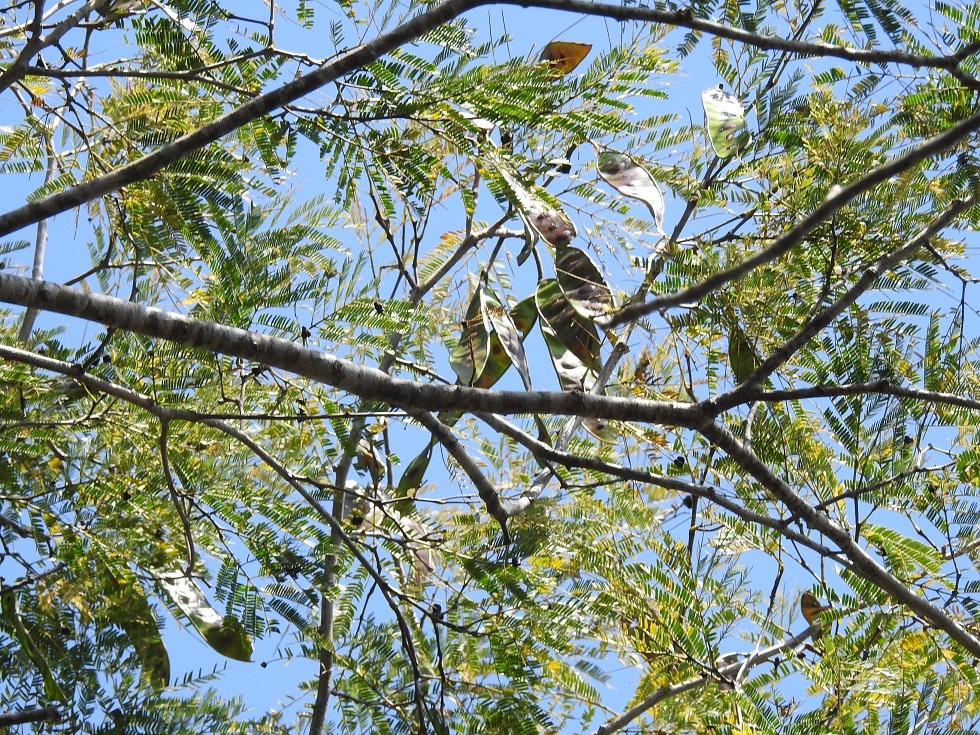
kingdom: Plantae
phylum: Tracheophyta
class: Magnoliopsida
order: Fabales
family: Fabaceae
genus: Lysiloma
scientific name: Lysiloma divaricatum
